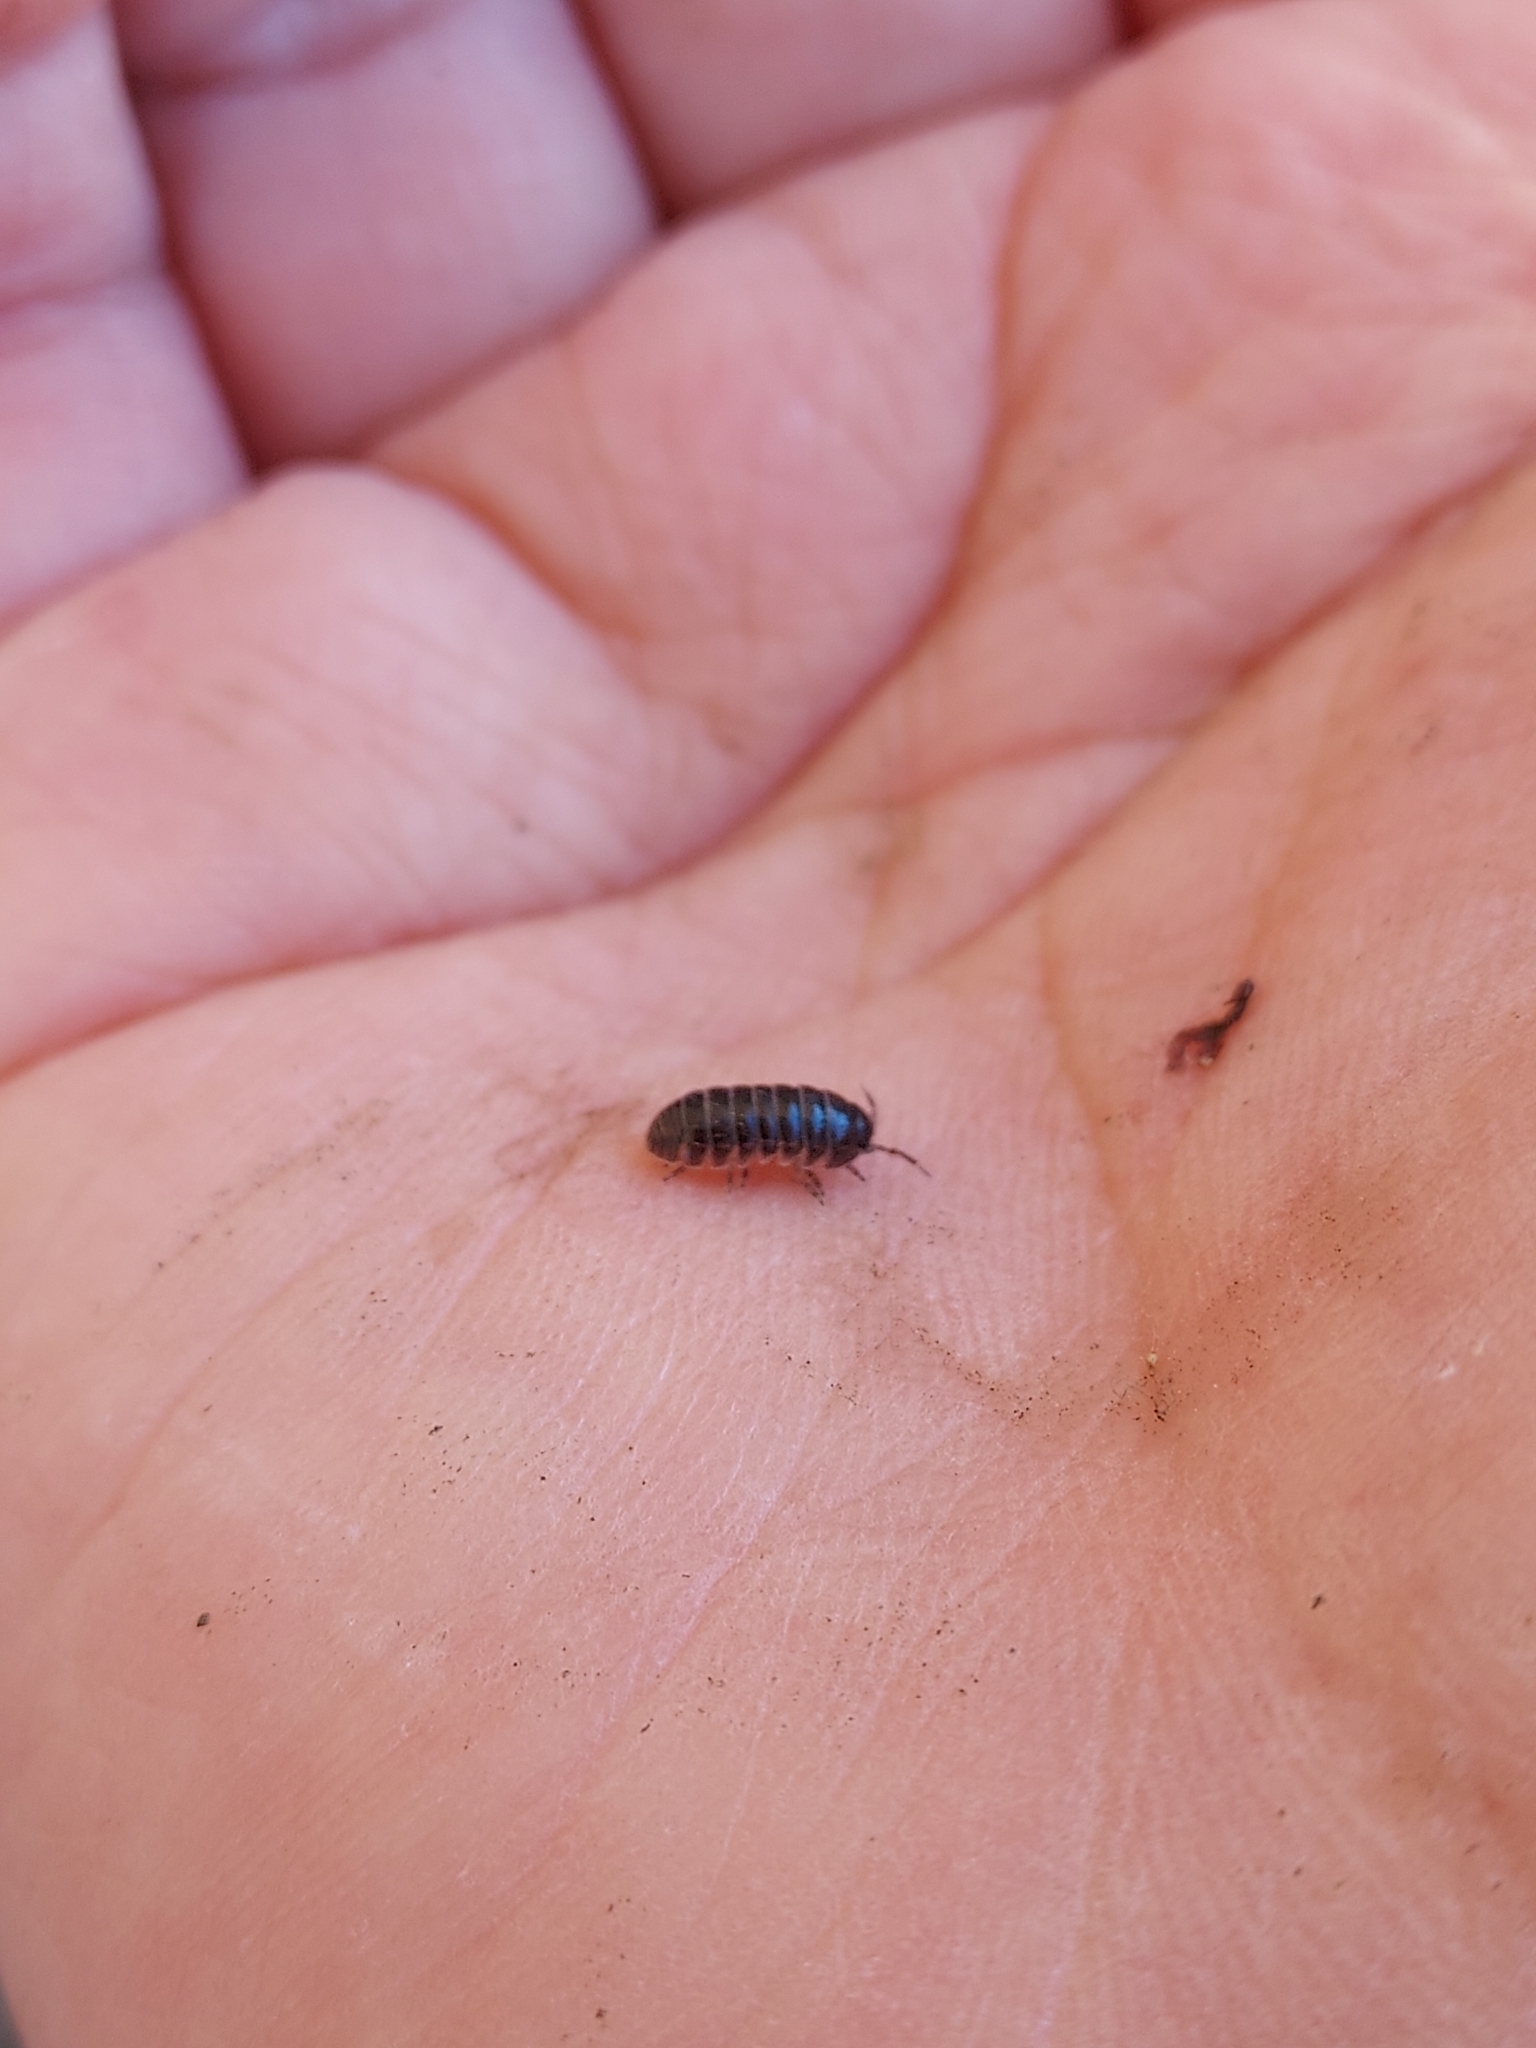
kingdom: Animalia
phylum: Arthropoda
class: Malacostraca
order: Isopoda
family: Armadillidiidae
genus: Armadillidium
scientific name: Armadillidium vulgare
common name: Common pill woodlouse
